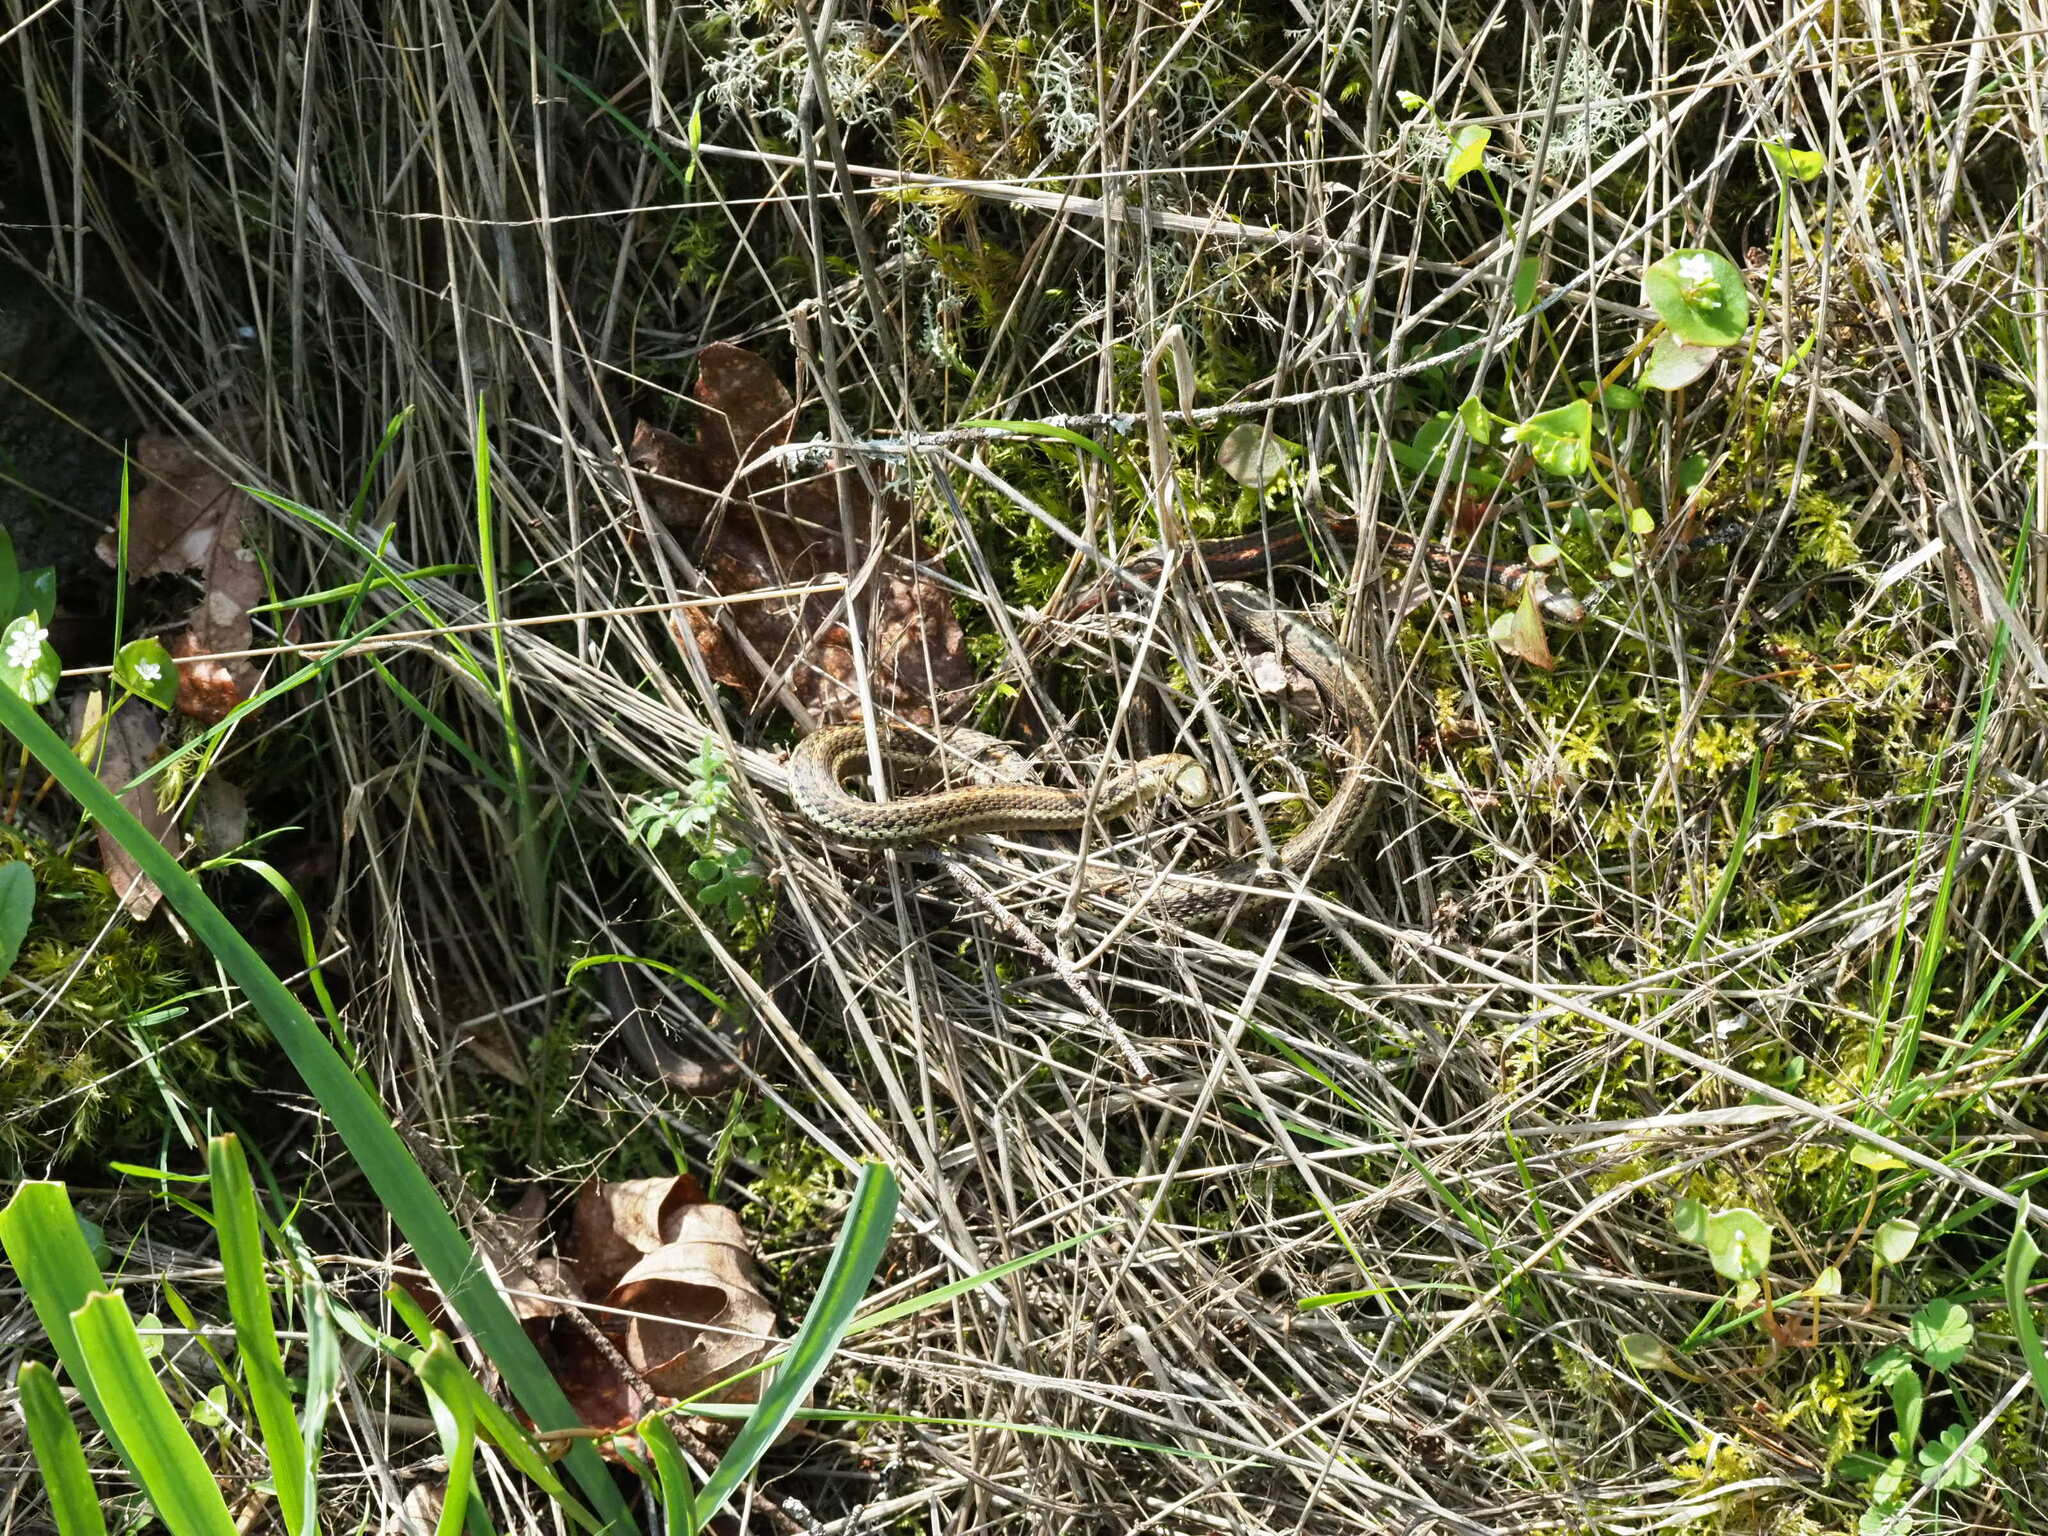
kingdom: Animalia
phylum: Chordata
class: Squamata
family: Colubridae
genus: Thamnophis
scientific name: Thamnophis ordinoides
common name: Northwestern garter snake
